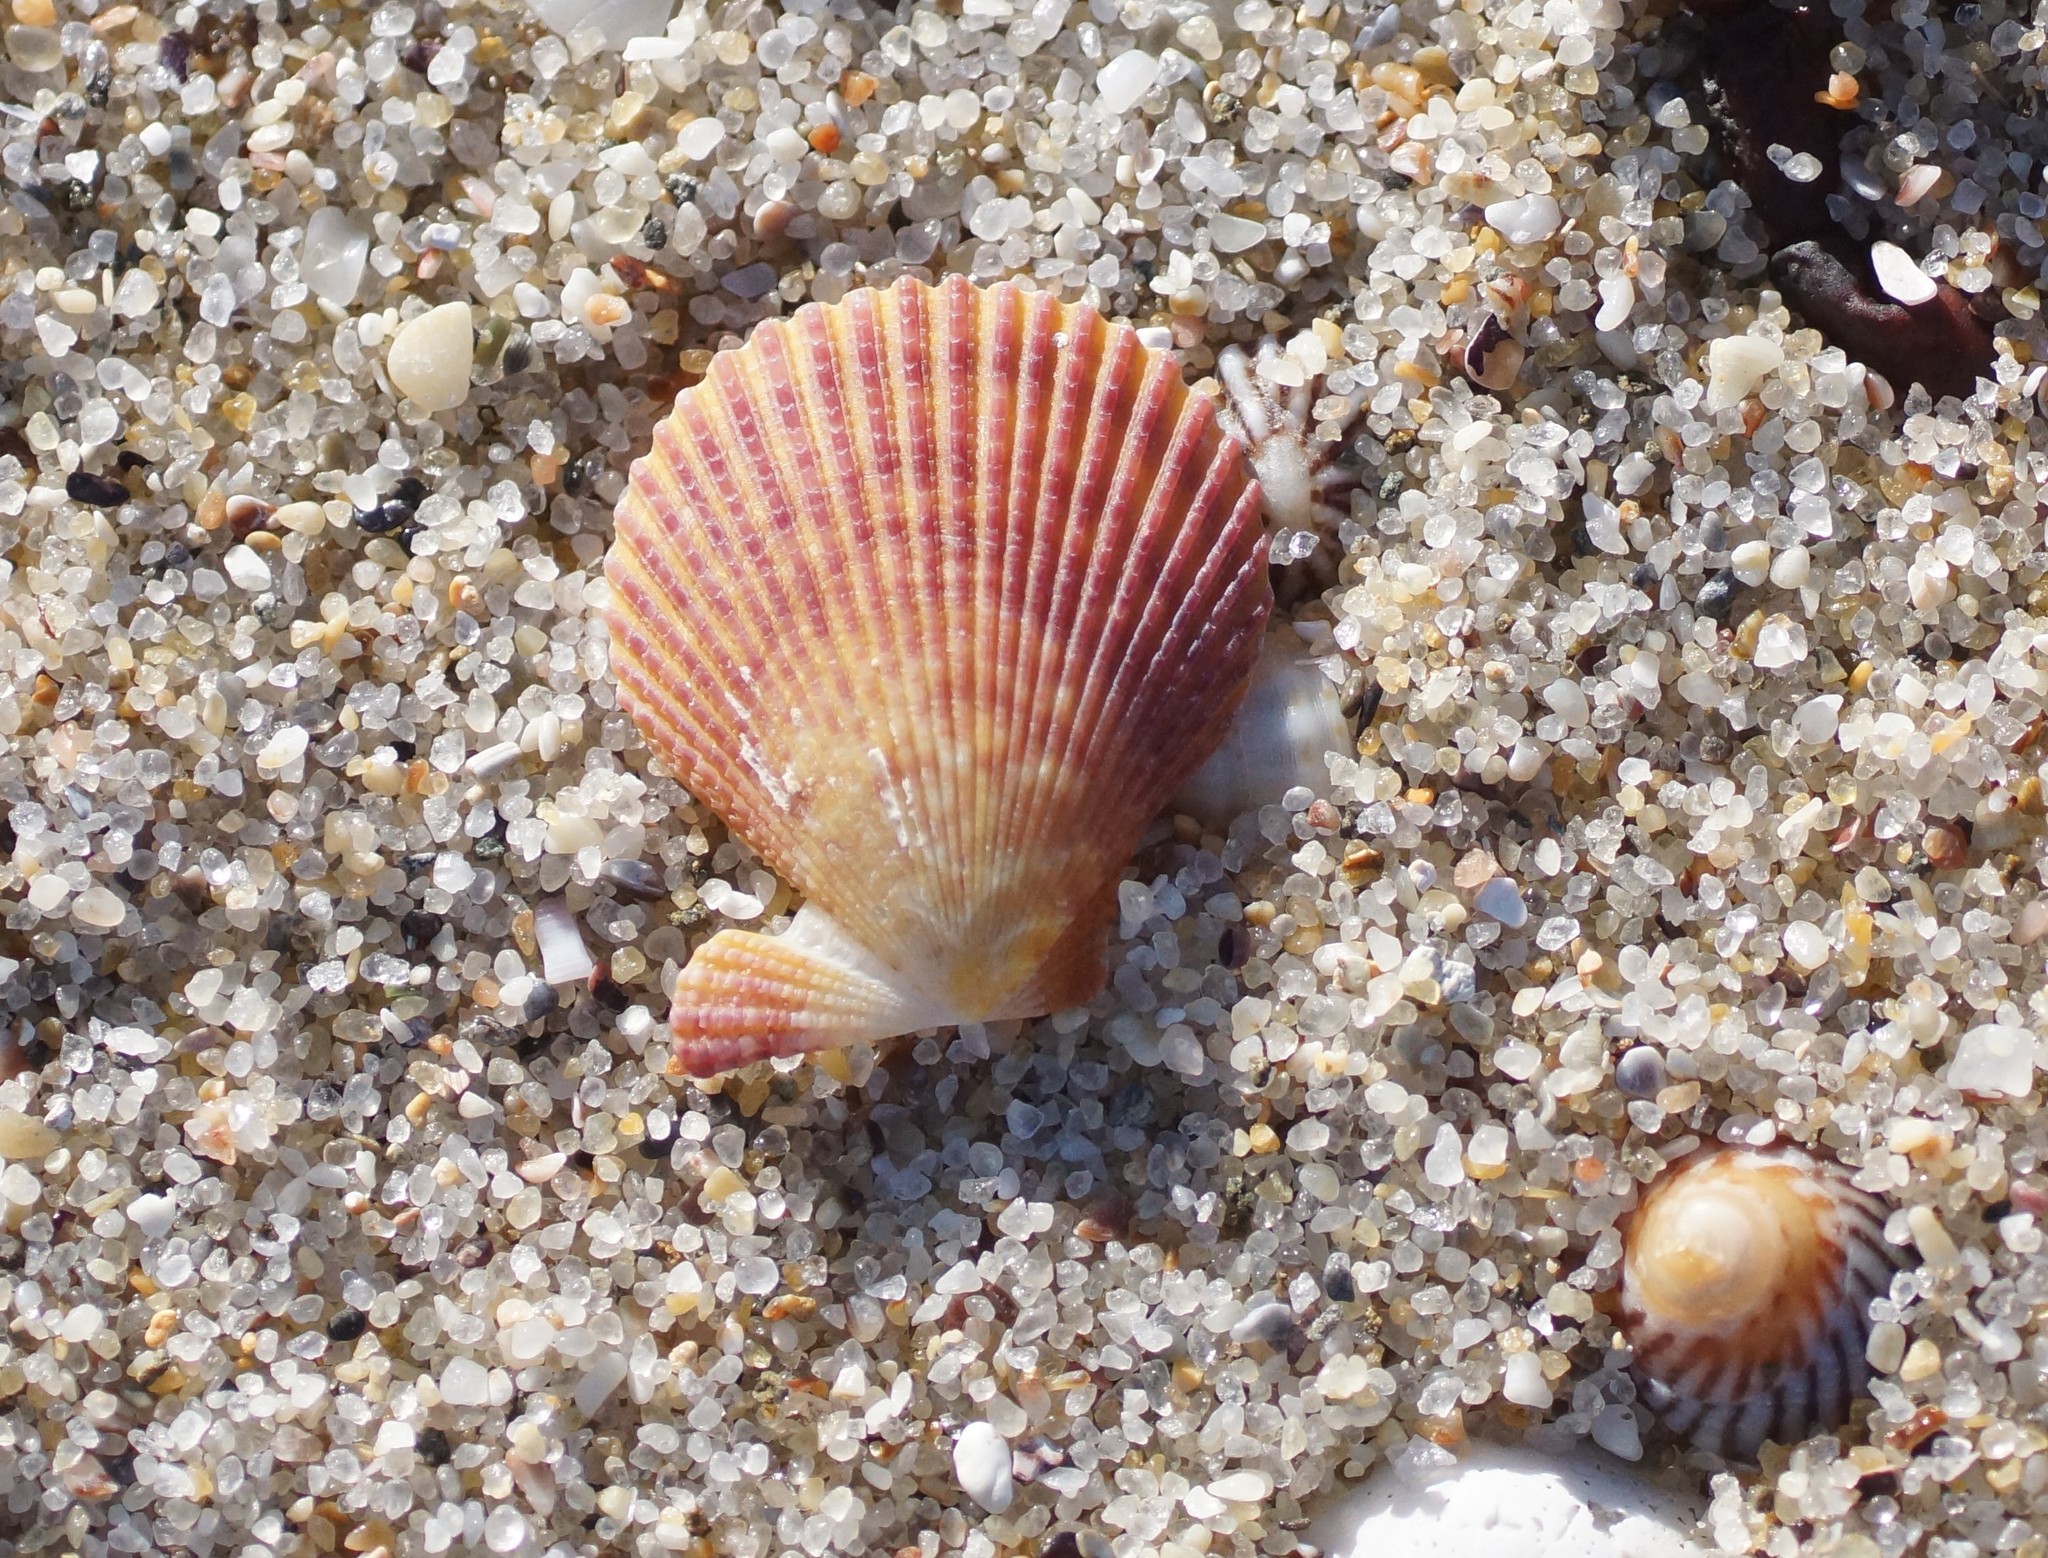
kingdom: Animalia
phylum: Mollusca
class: Bivalvia
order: Pectinida
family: Pectinidae
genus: Mimachlamys
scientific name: Mimachlamys asperrima
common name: Austral scallop
